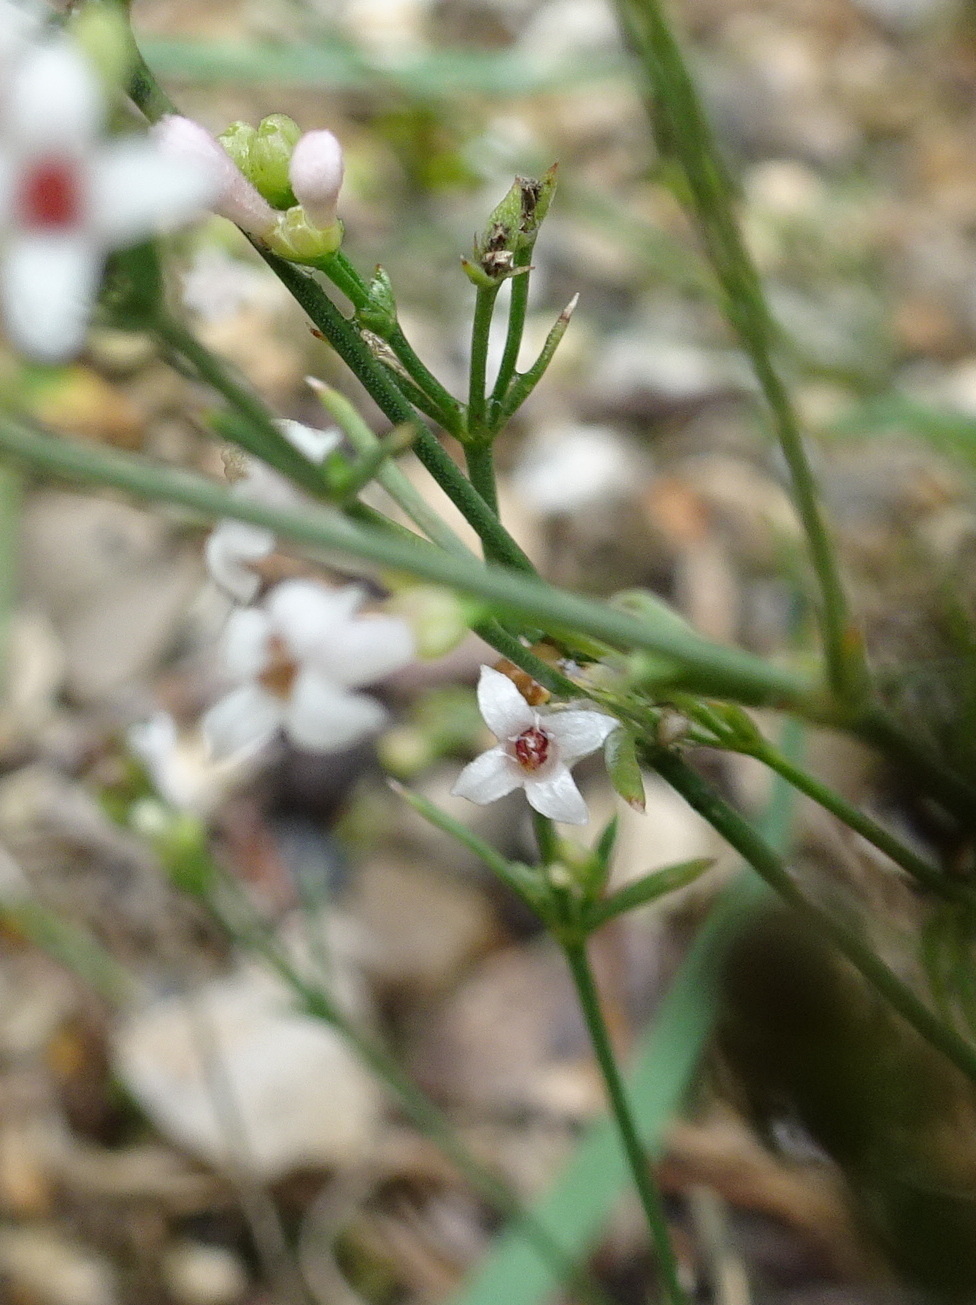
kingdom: Plantae
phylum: Tracheophyta
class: Magnoliopsida
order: Gentianales
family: Rubiaceae
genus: Cynanchica
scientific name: Cynanchica pyrenaica
